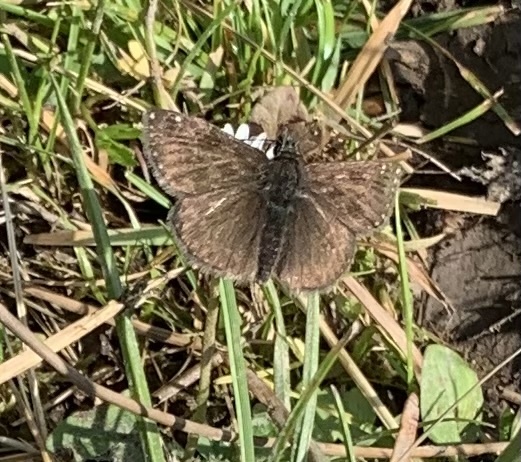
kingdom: Animalia
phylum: Arthropoda
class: Insecta
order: Lepidoptera
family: Hesperiidae
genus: Erynnis
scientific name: Erynnis tages
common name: Dingy skipper
